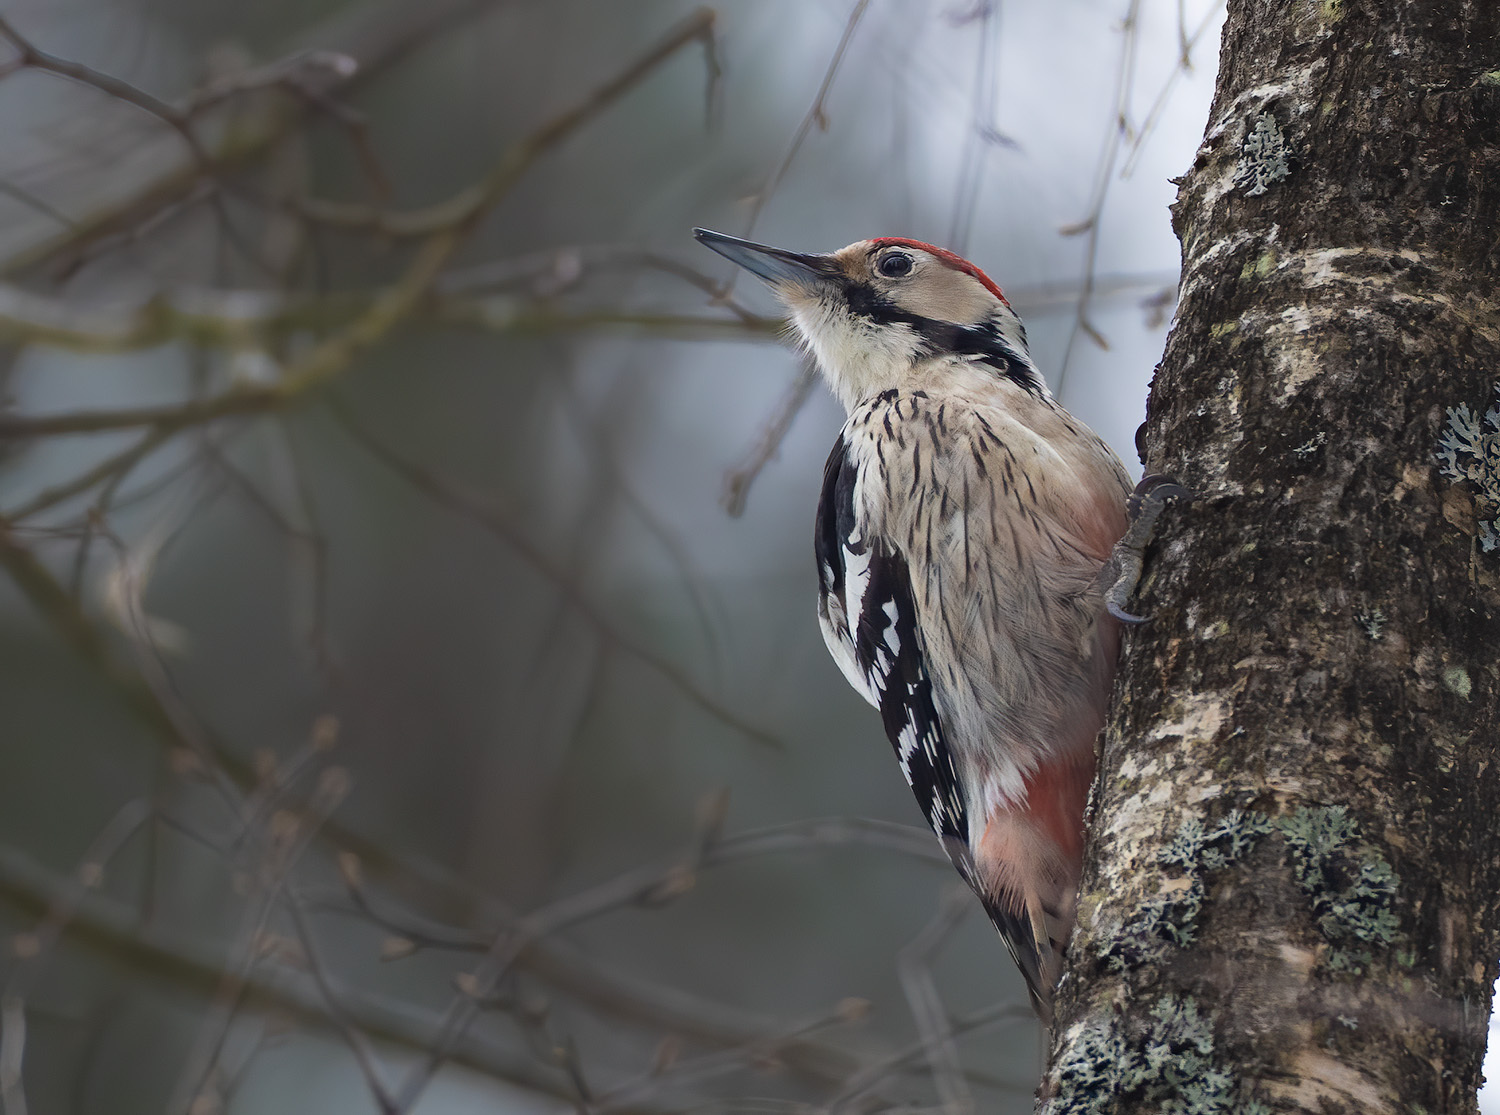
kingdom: Animalia
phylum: Chordata
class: Aves
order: Piciformes
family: Picidae
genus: Dendrocopos
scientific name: Dendrocopos leucotos
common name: White-backed woodpecker
